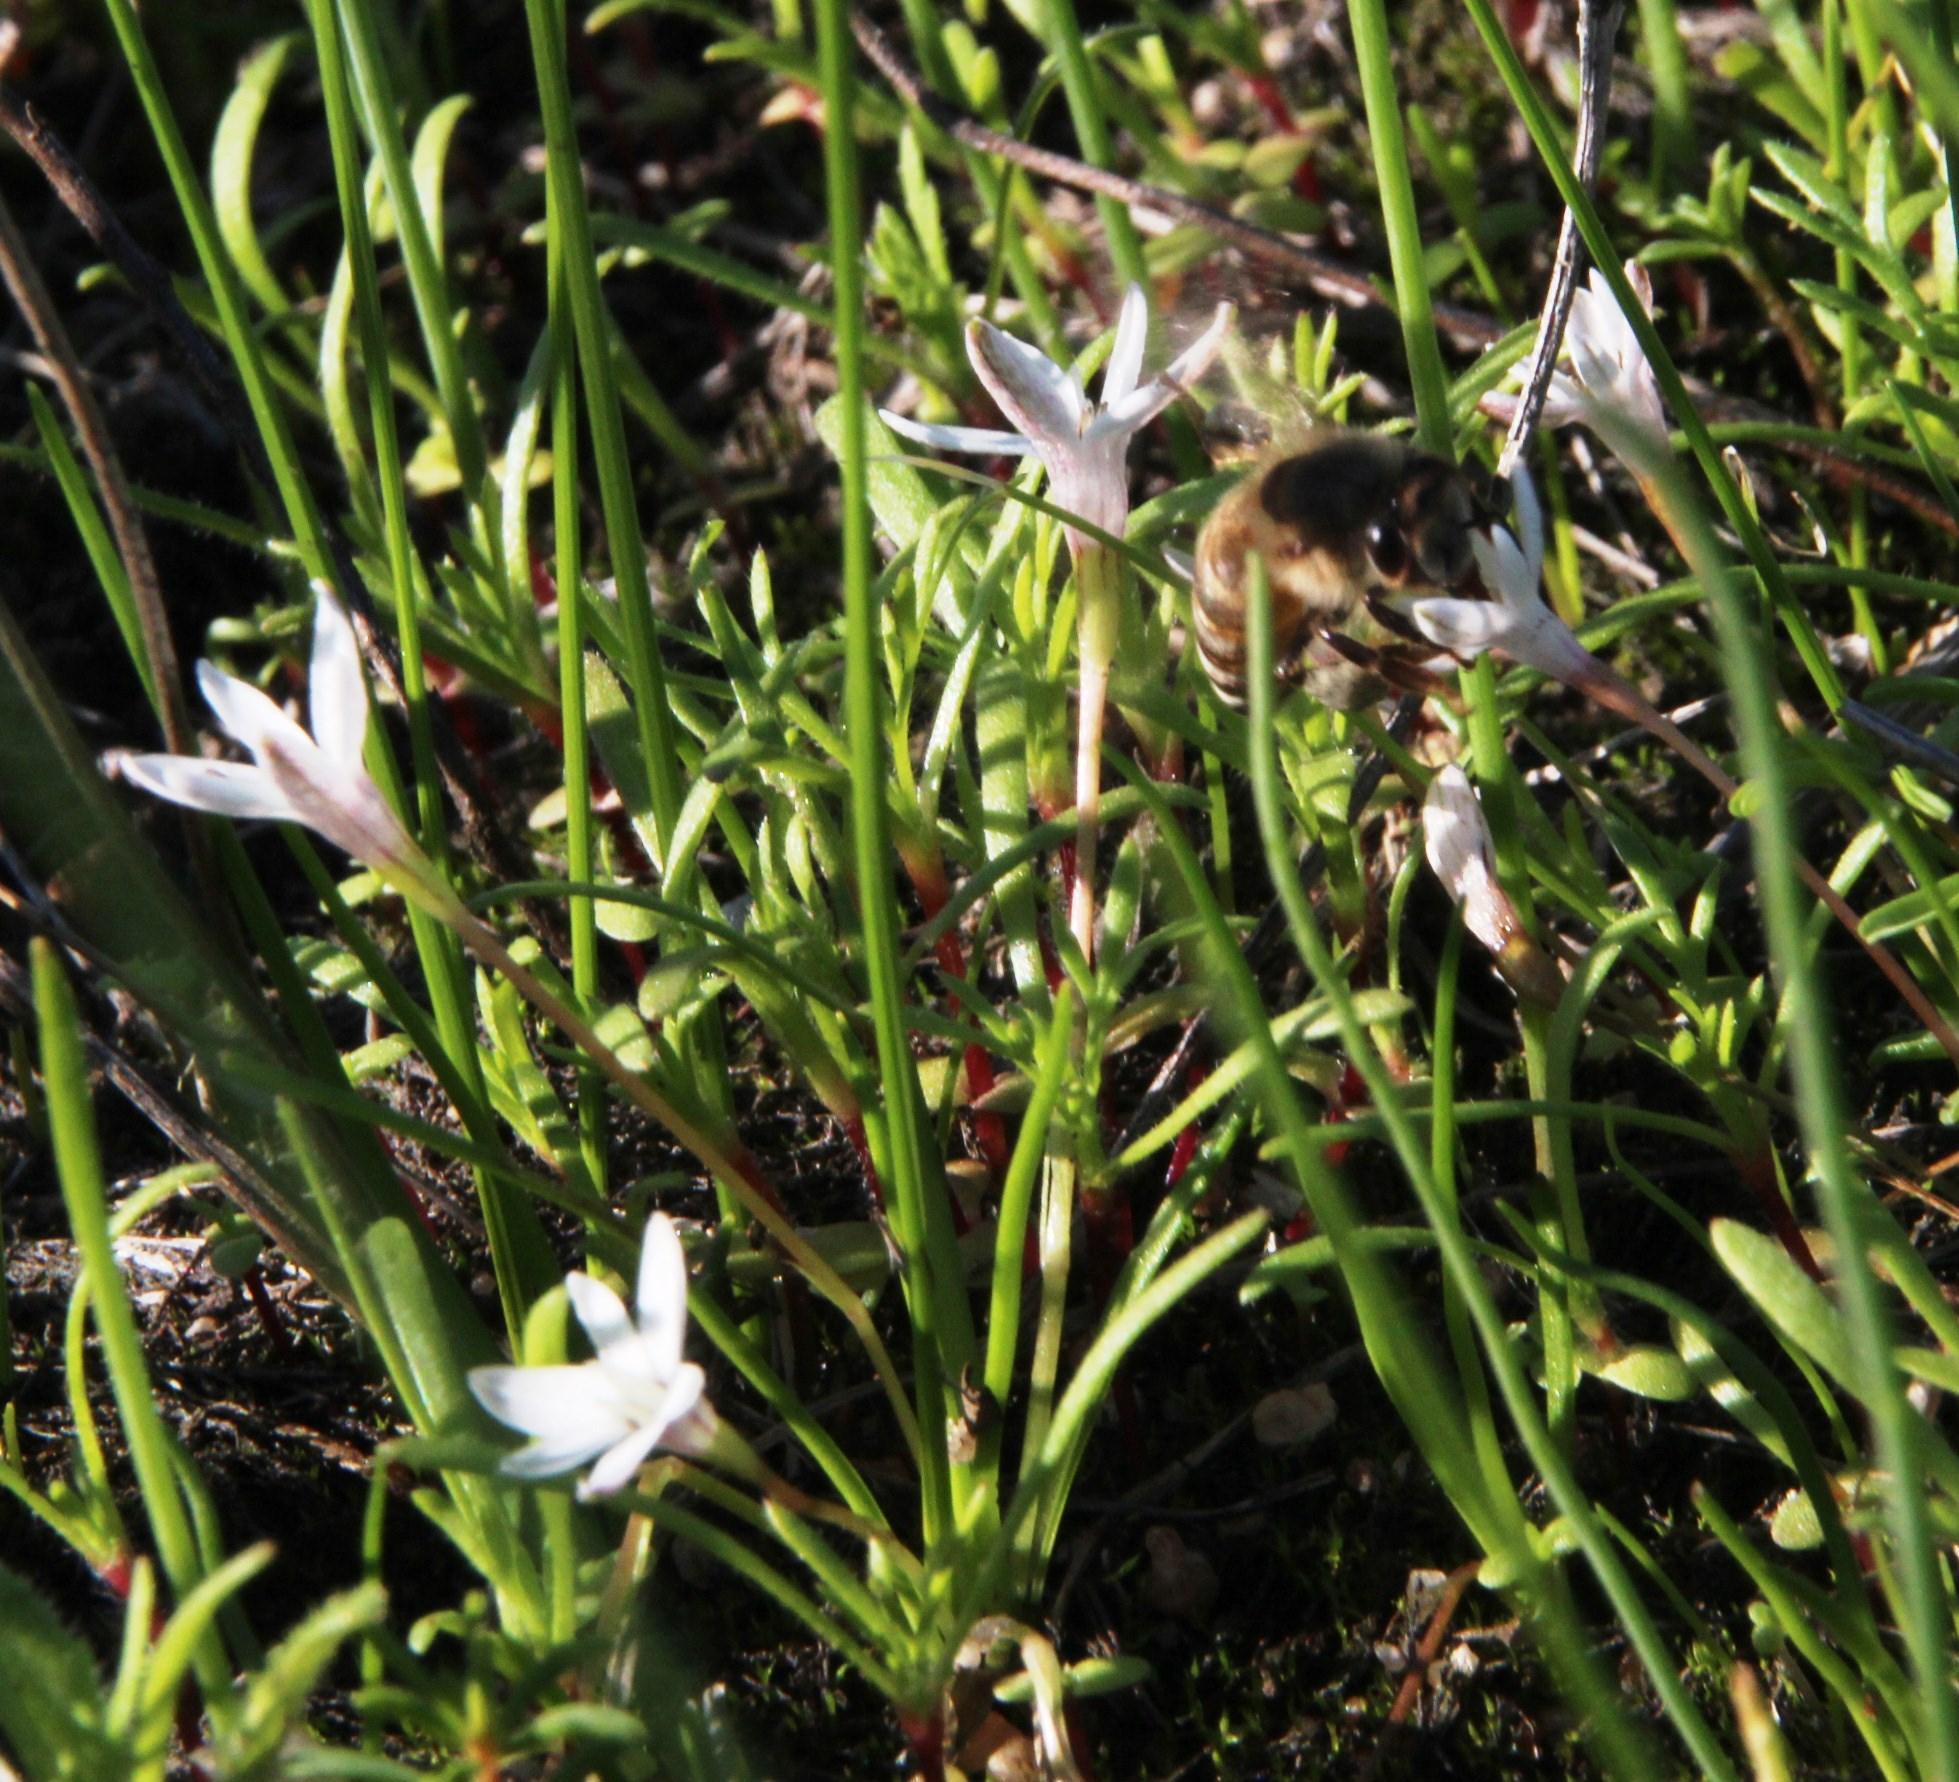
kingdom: Animalia
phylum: Arthropoda
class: Insecta
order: Hymenoptera
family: Apidae
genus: Apis
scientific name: Apis mellifera
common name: Honey bee
